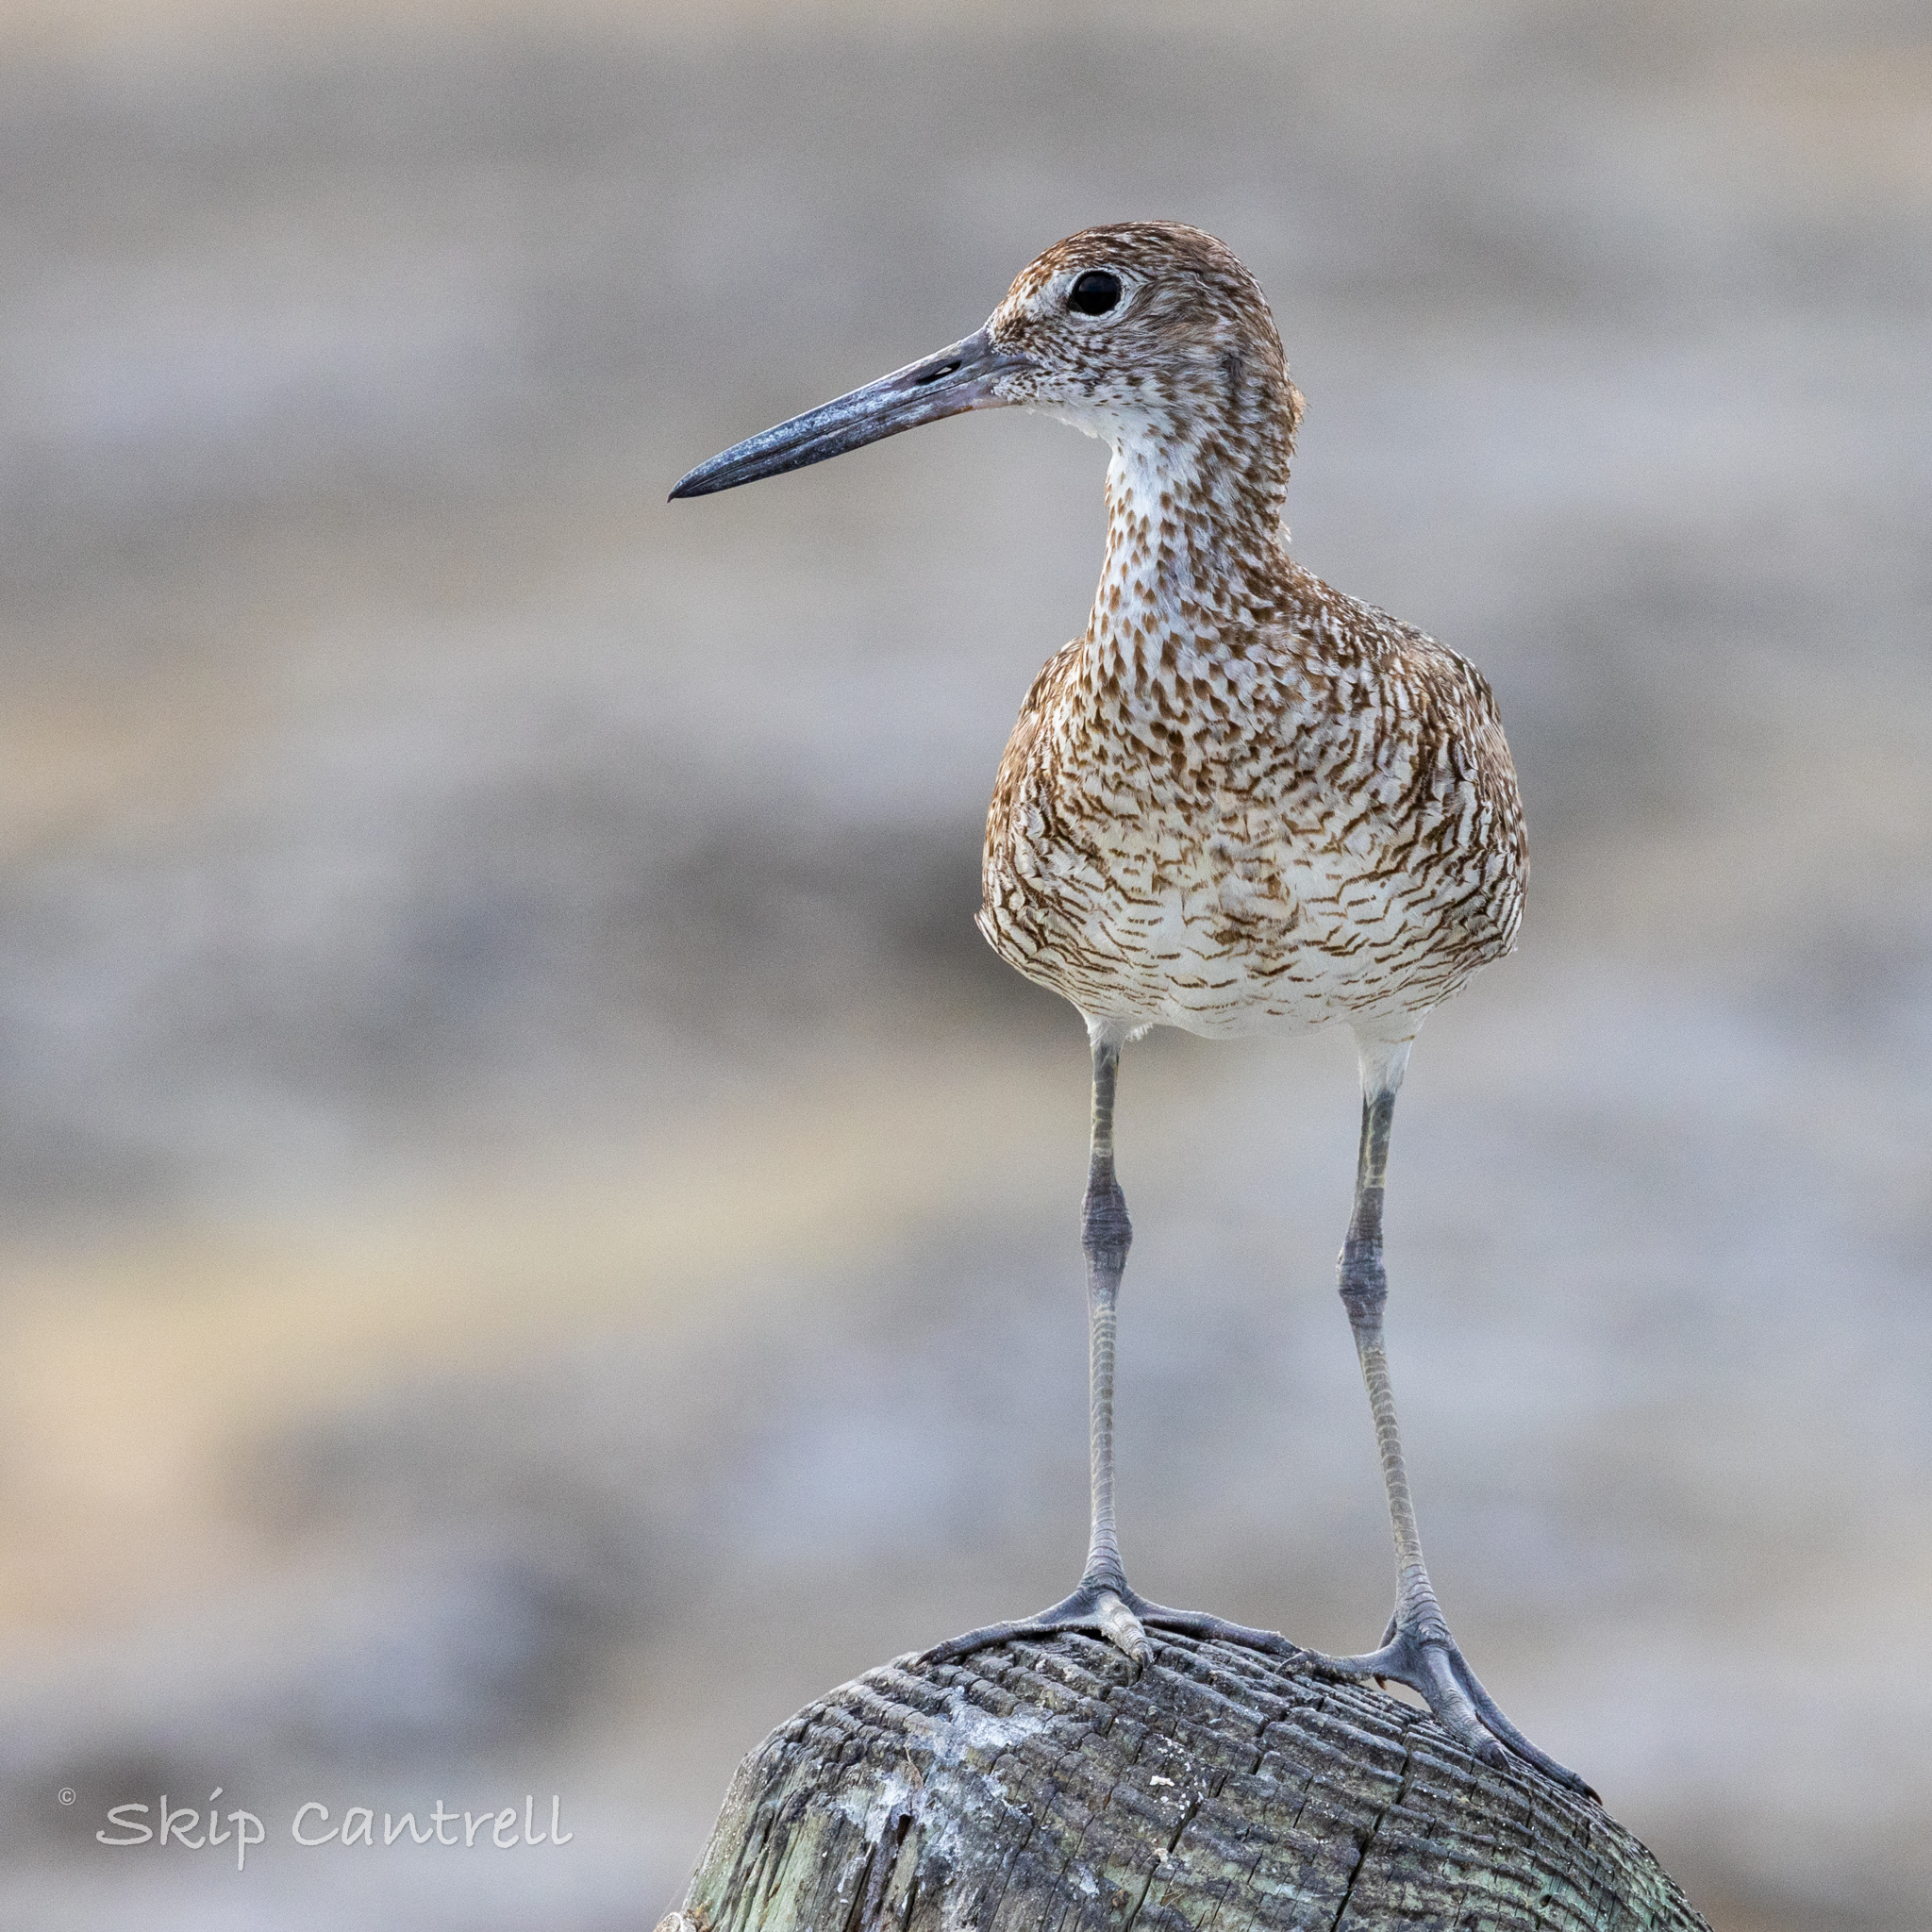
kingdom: Animalia
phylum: Chordata
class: Aves
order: Charadriiformes
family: Scolopacidae
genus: Tringa
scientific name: Tringa semipalmata
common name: Willet
